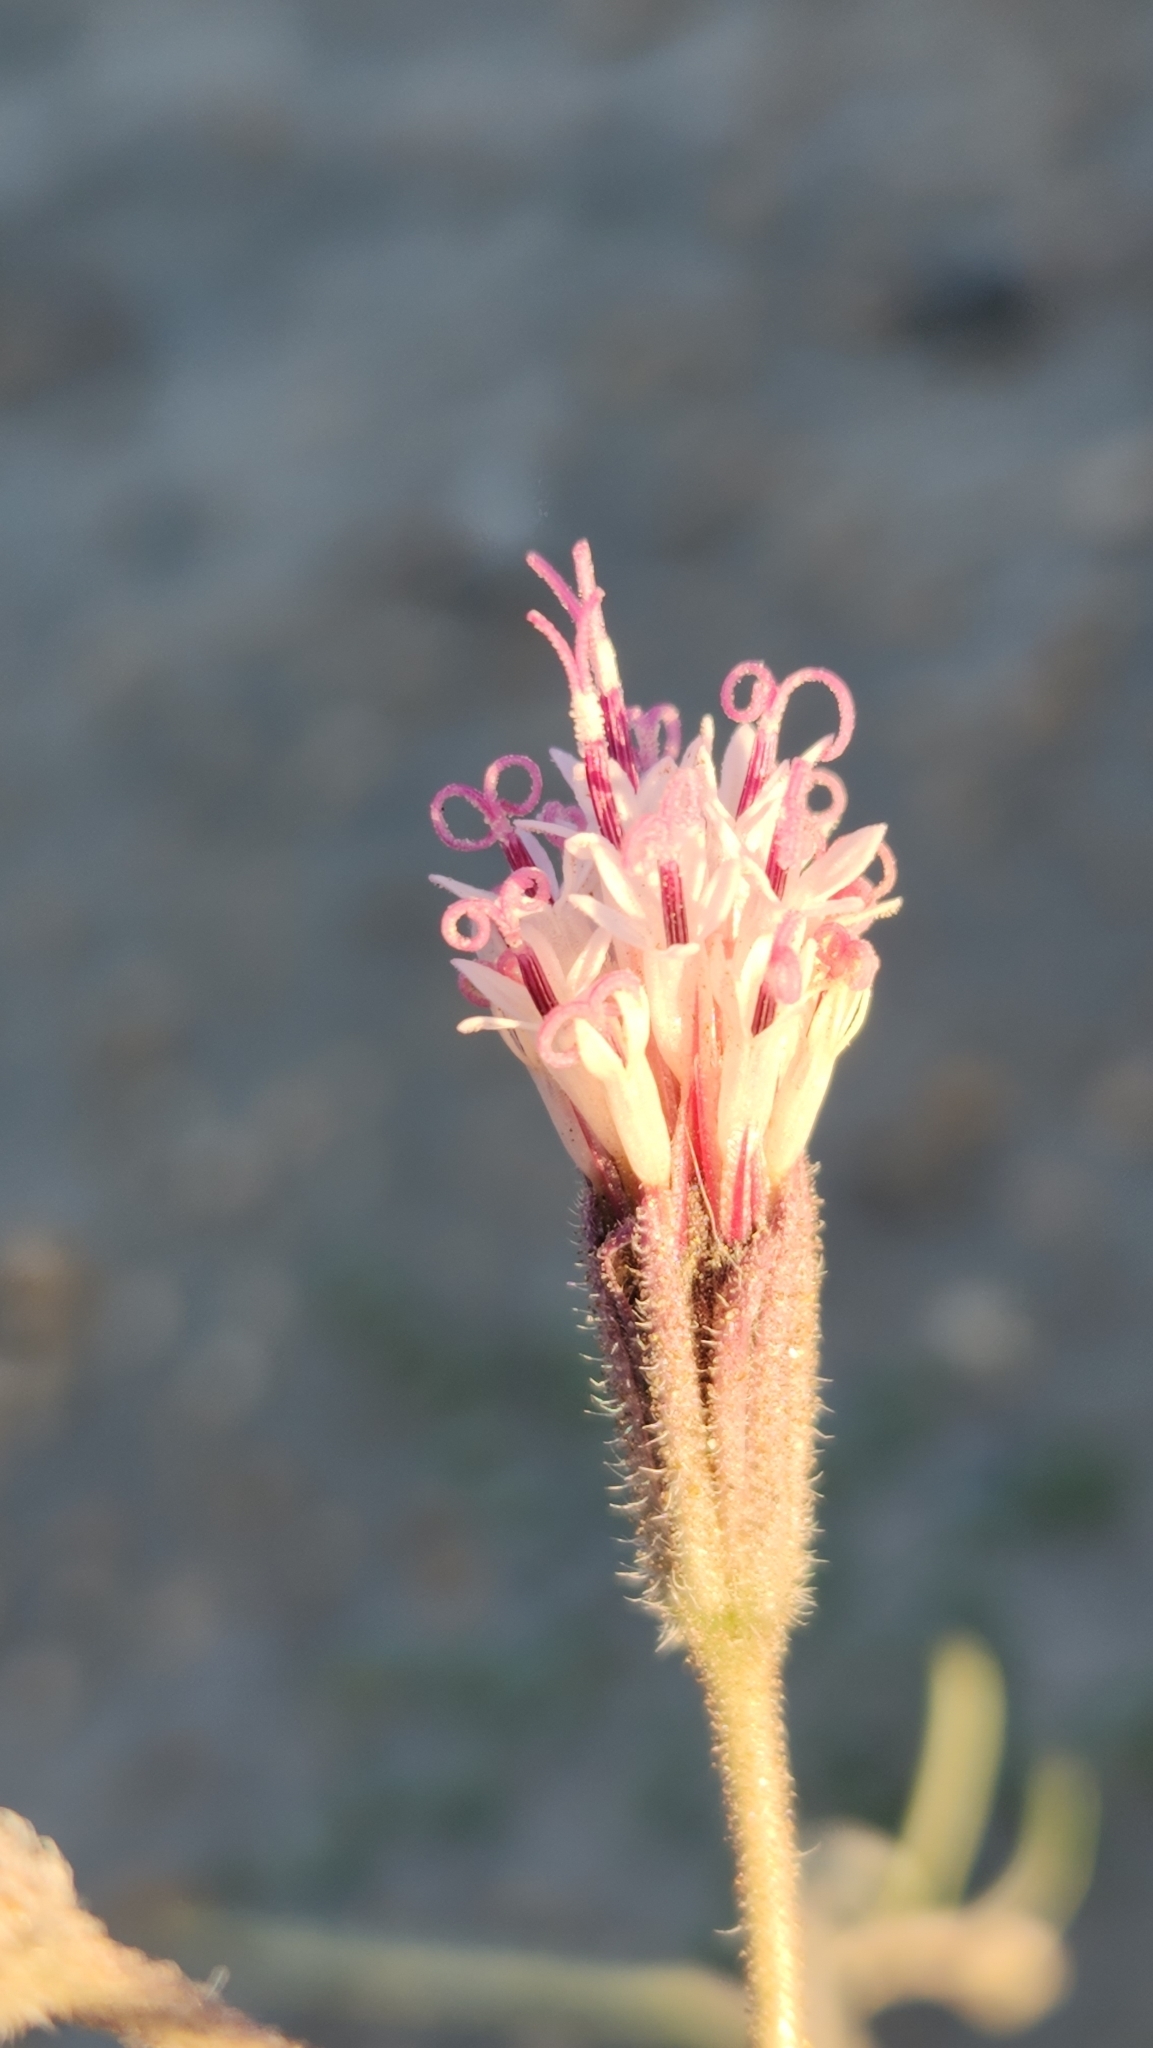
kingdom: Plantae
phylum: Tracheophyta
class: Magnoliopsida
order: Asterales
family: Asteraceae
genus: Palafoxia
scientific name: Palafoxia arida
